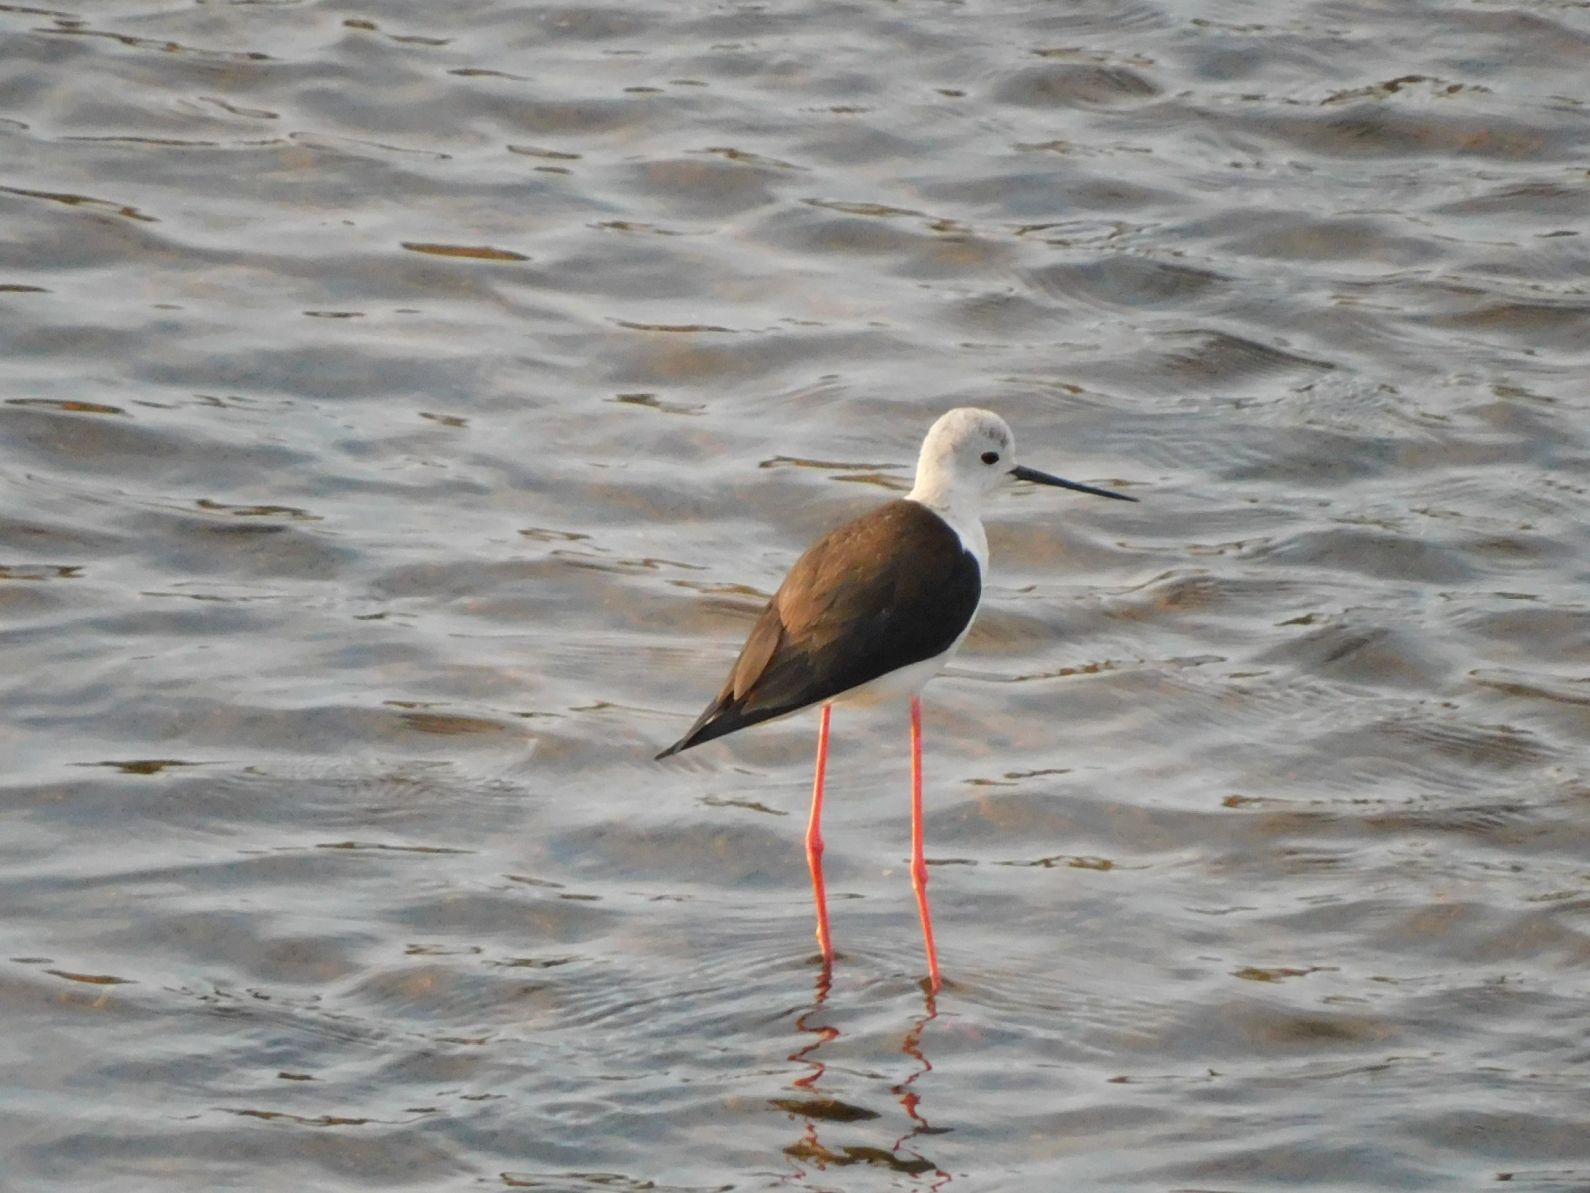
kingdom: Animalia
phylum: Chordata
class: Aves
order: Charadriiformes
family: Recurvirostridae
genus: Himantopus
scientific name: Himantopus himantopus
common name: Black-winged stilt
